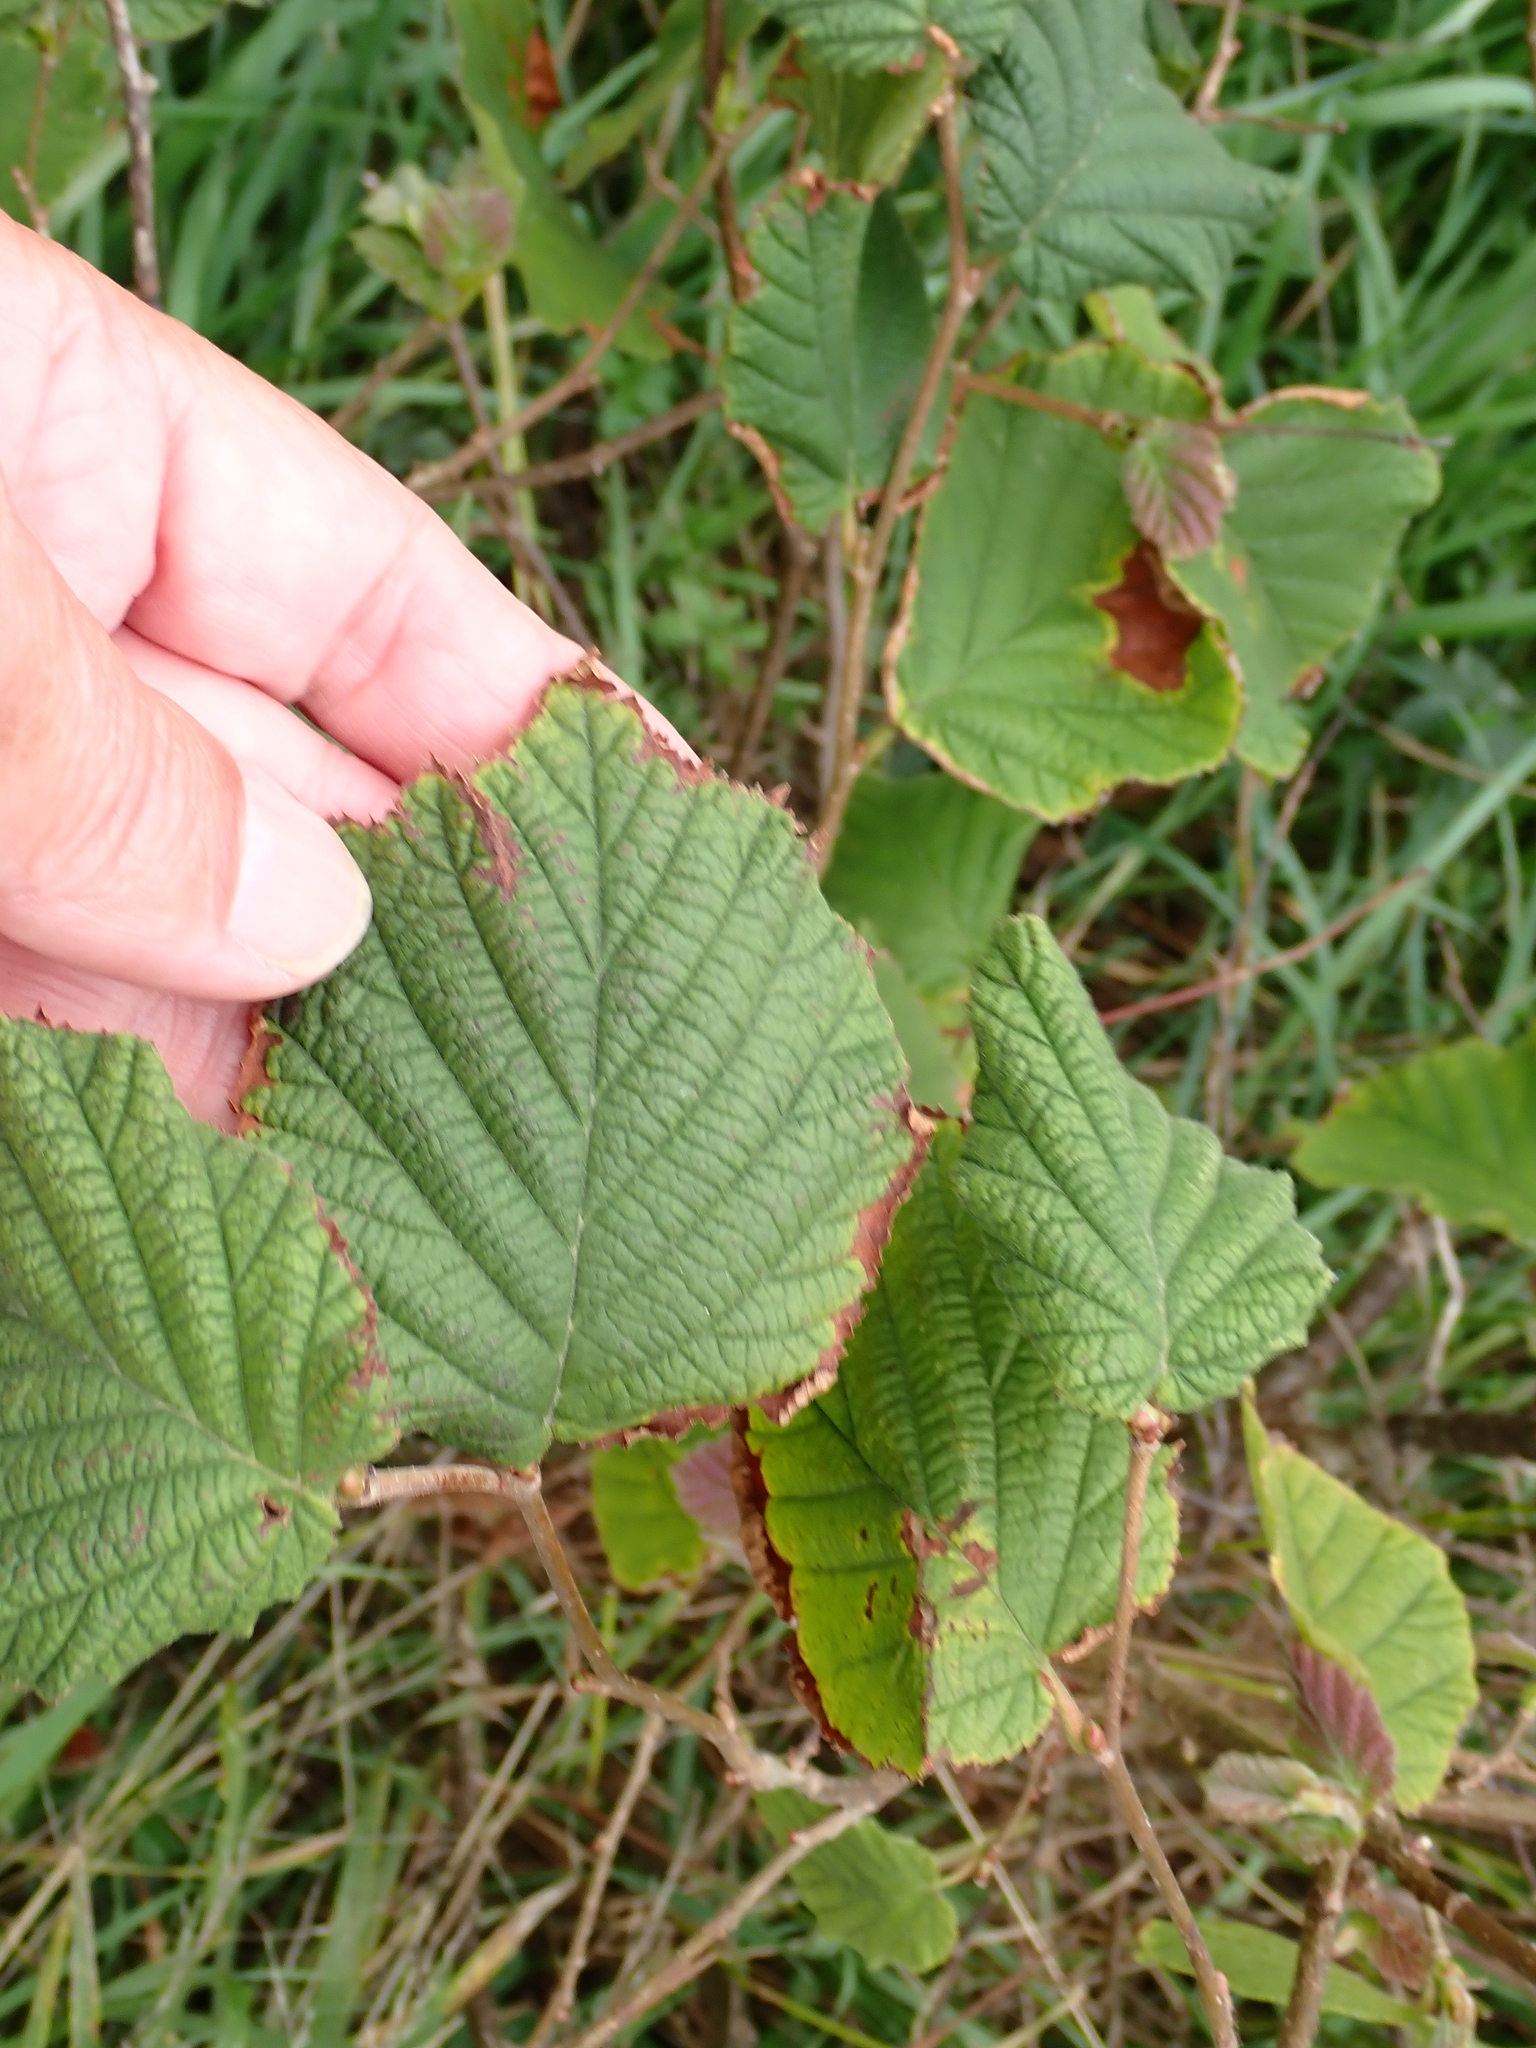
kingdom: Plantae
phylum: Tracheophyta
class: Magnoliopsida
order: Fagales
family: Betulaceae
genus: Corylus
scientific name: Corylus avellana
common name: European hazel
